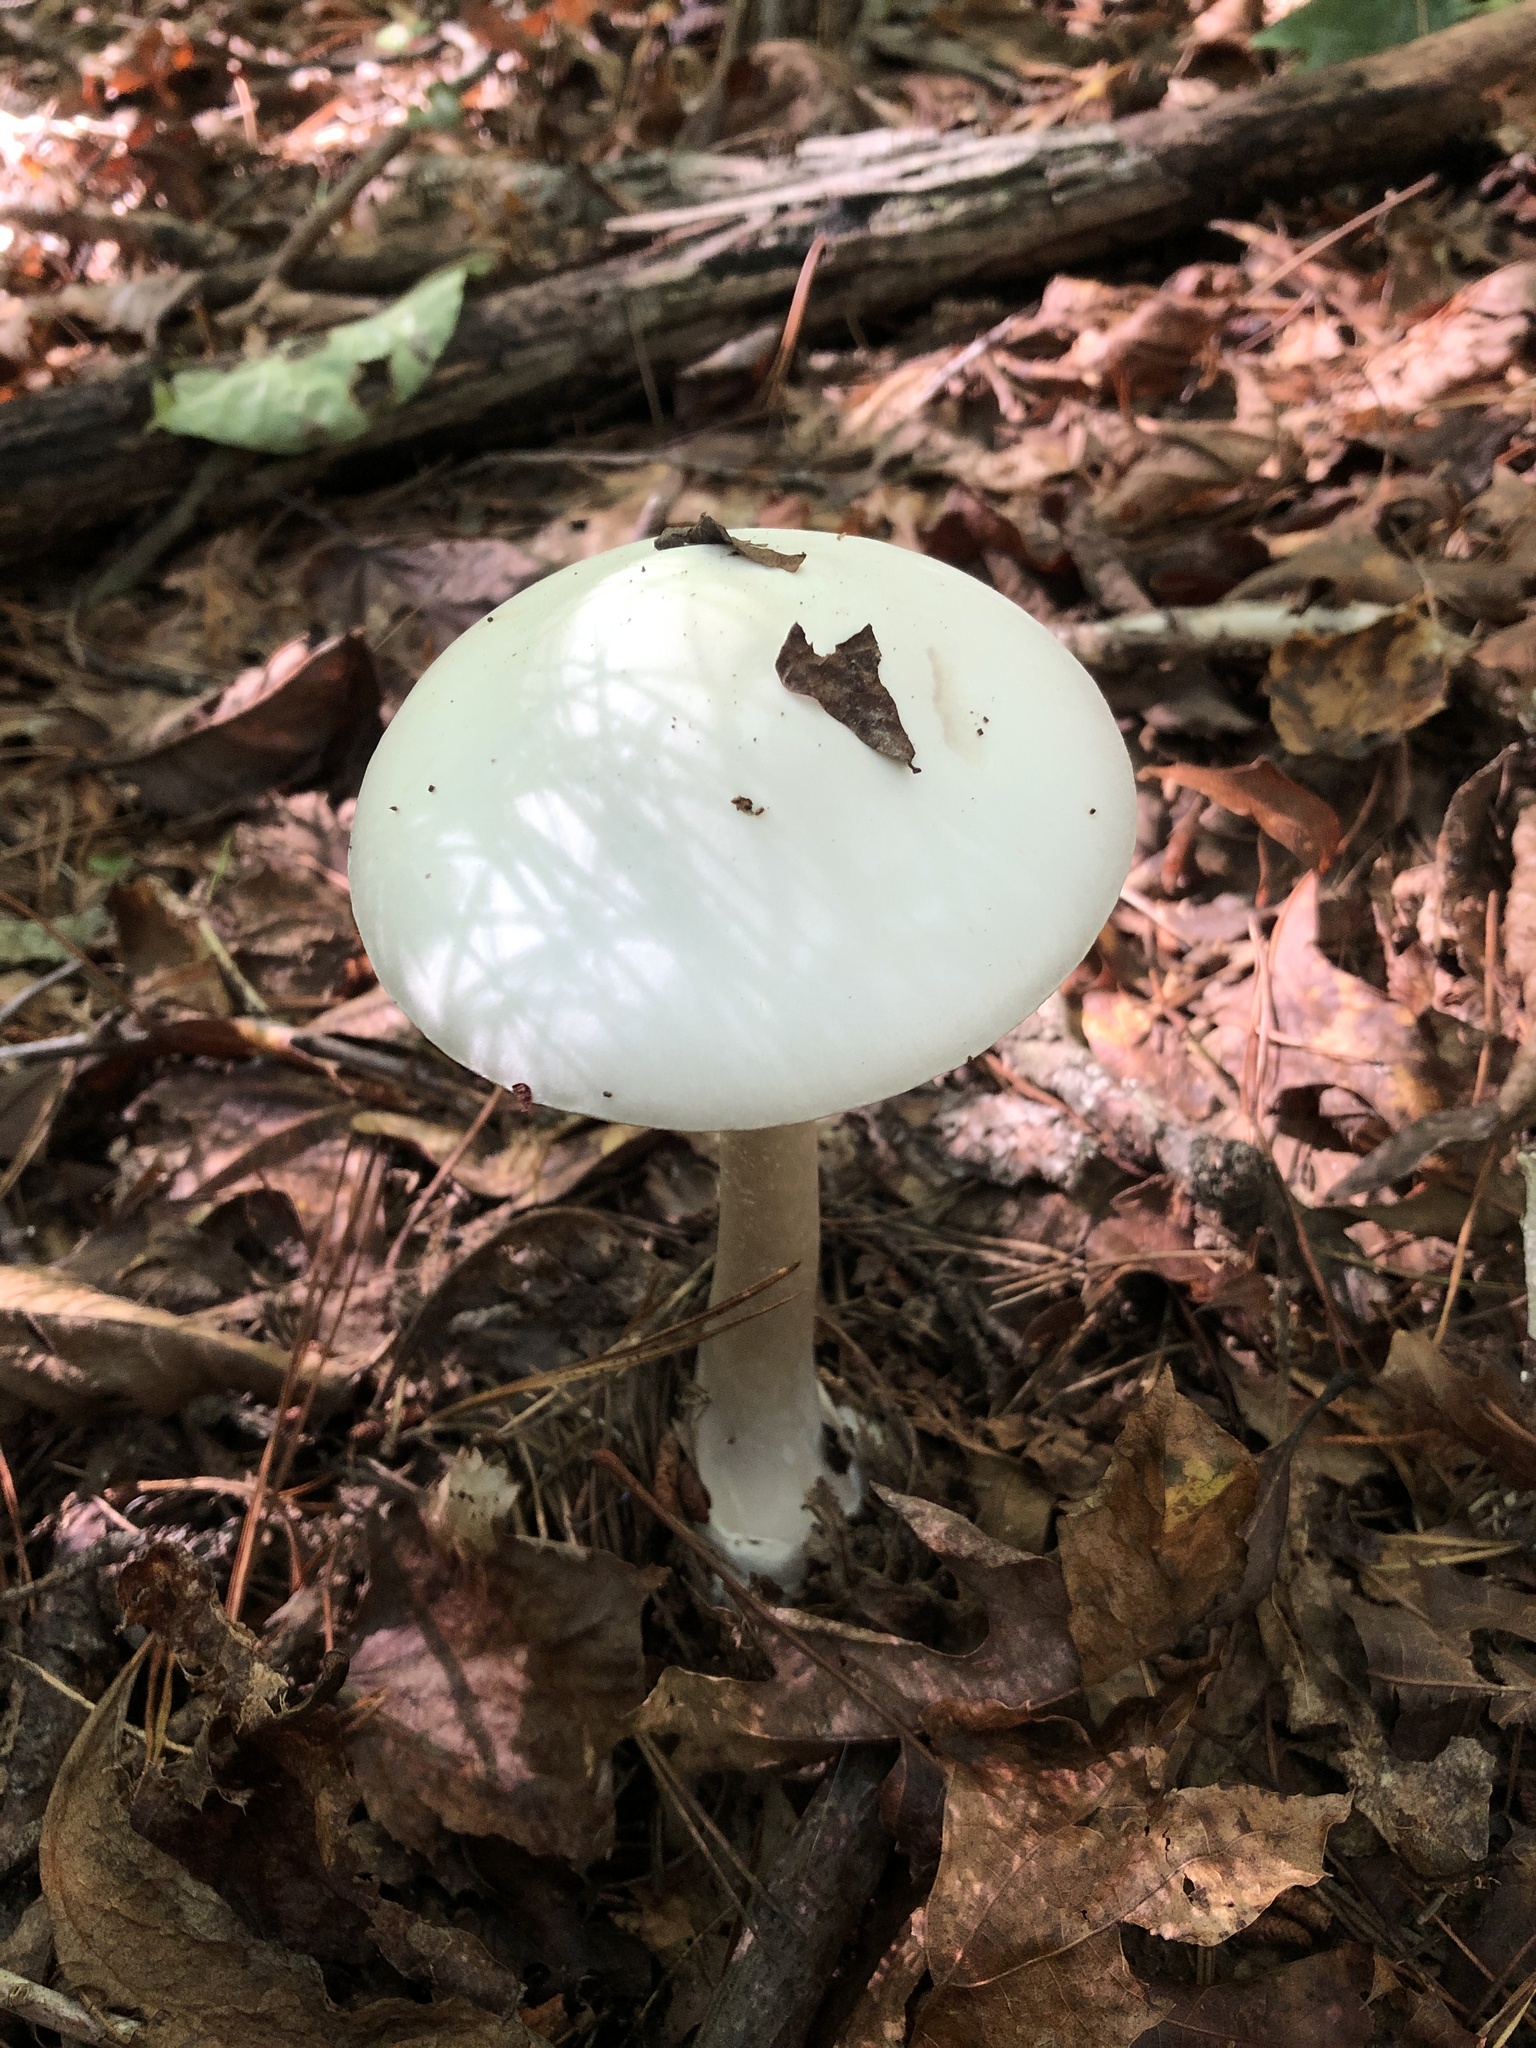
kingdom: Fungi
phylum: Basidiomycota
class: Agaricomycetes
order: Agaricales
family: Amanitaceae
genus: Amanita
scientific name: Amanita bisporigera
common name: Eastern north american destroying angel
